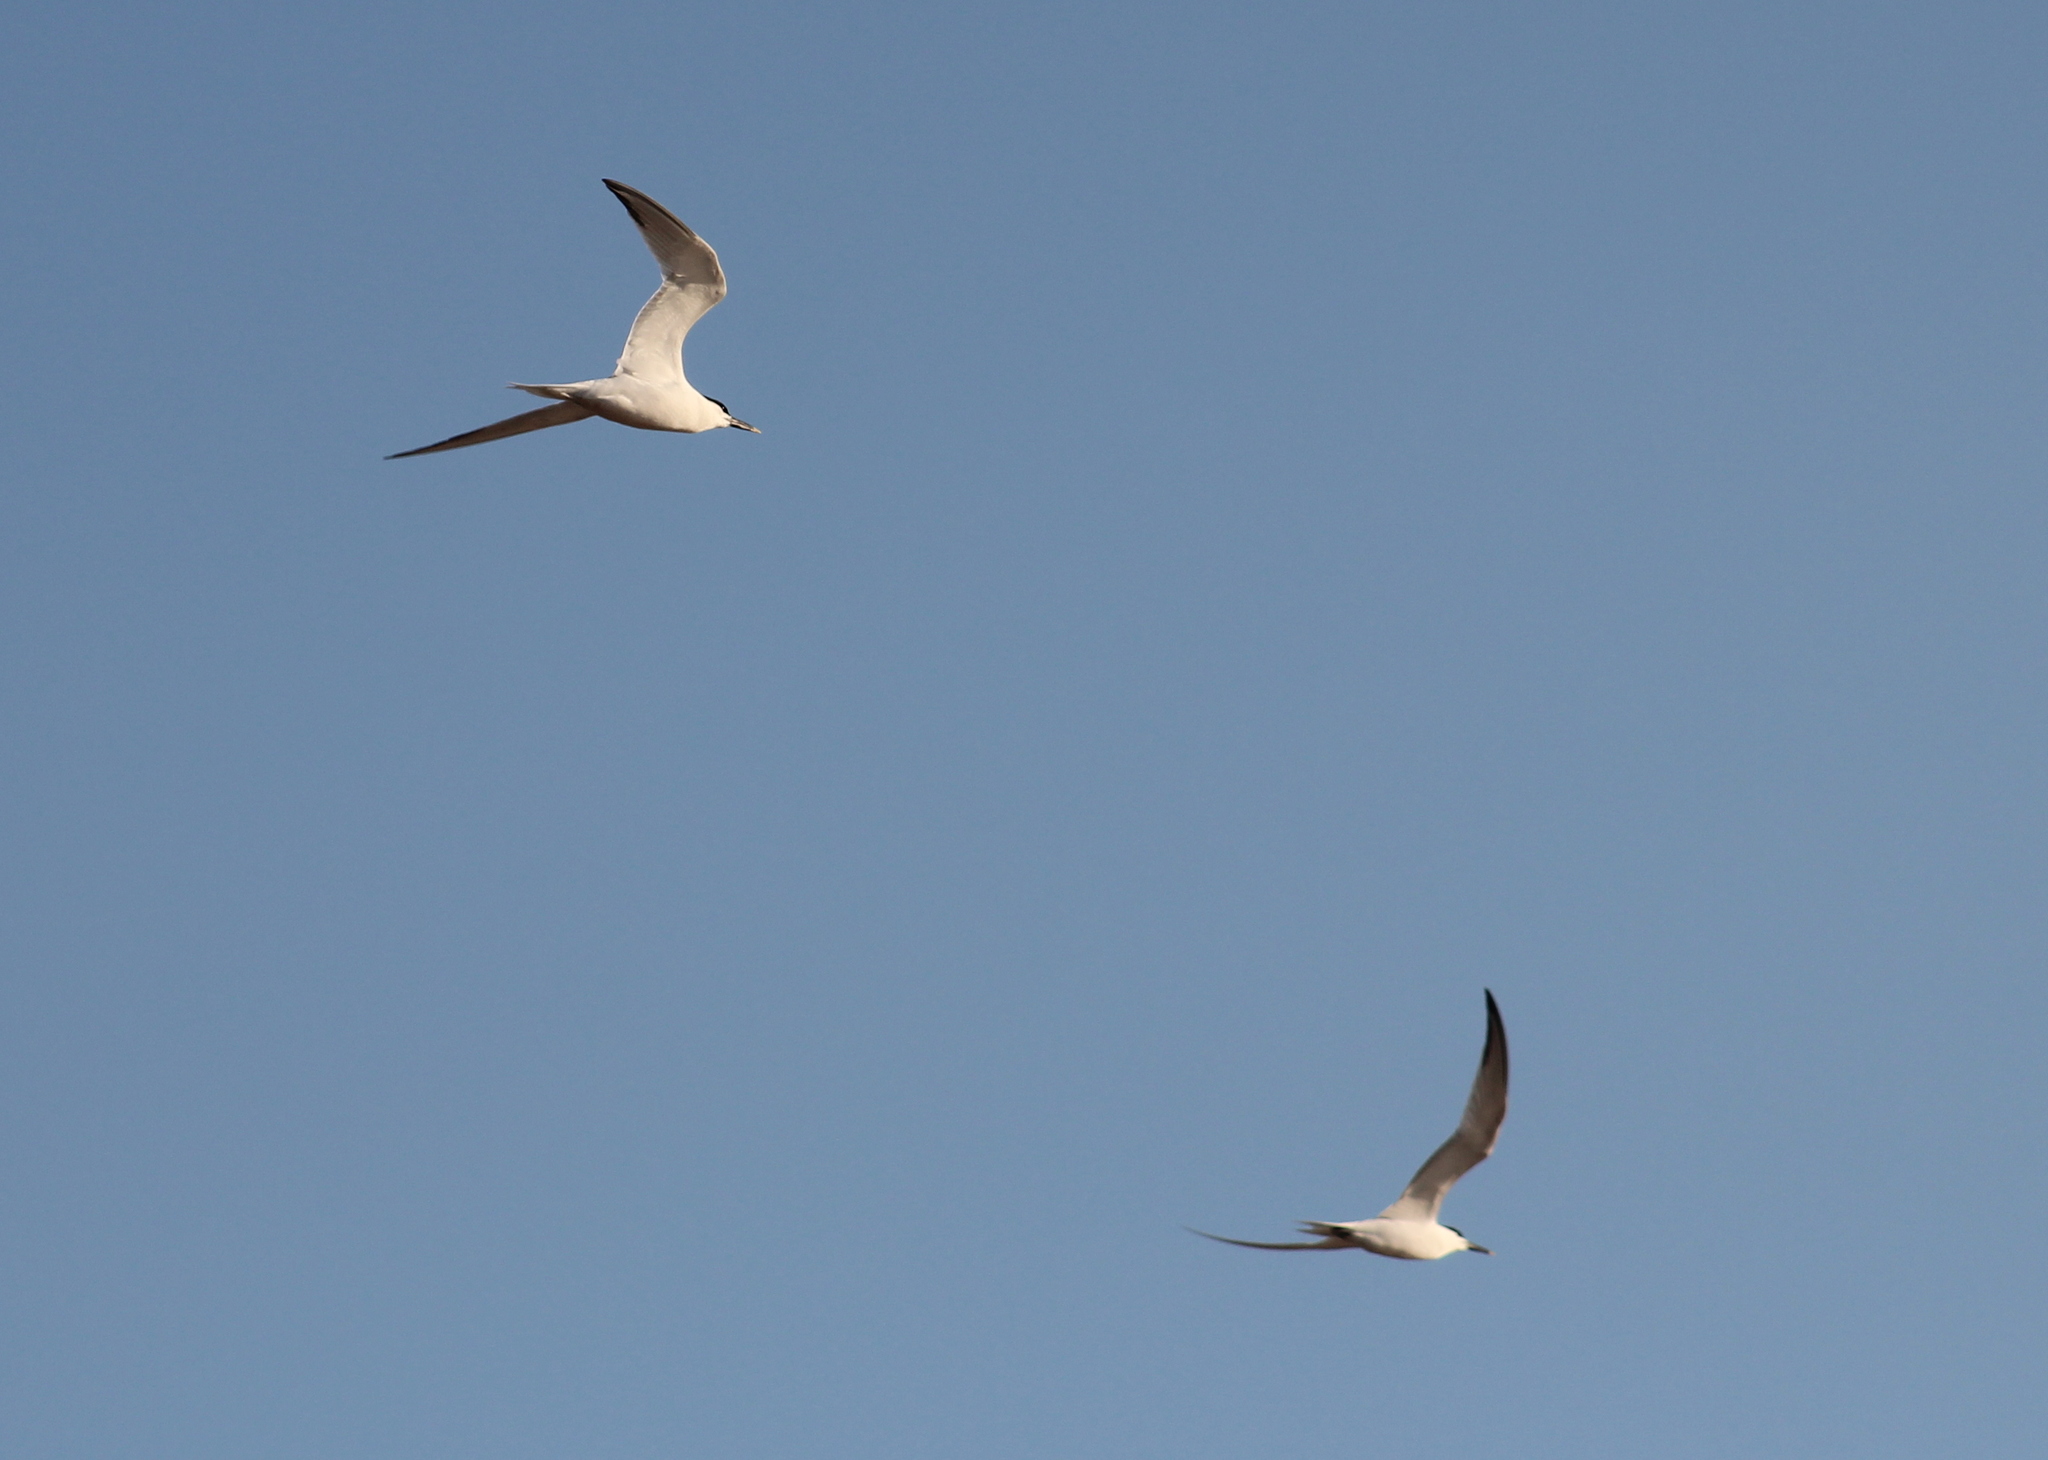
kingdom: Animalia
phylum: Chordata
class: Aves
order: Charadriiformes
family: Laridae
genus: Thalasseus
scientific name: Thalasseus sandvicensis
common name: Sandwich tern
